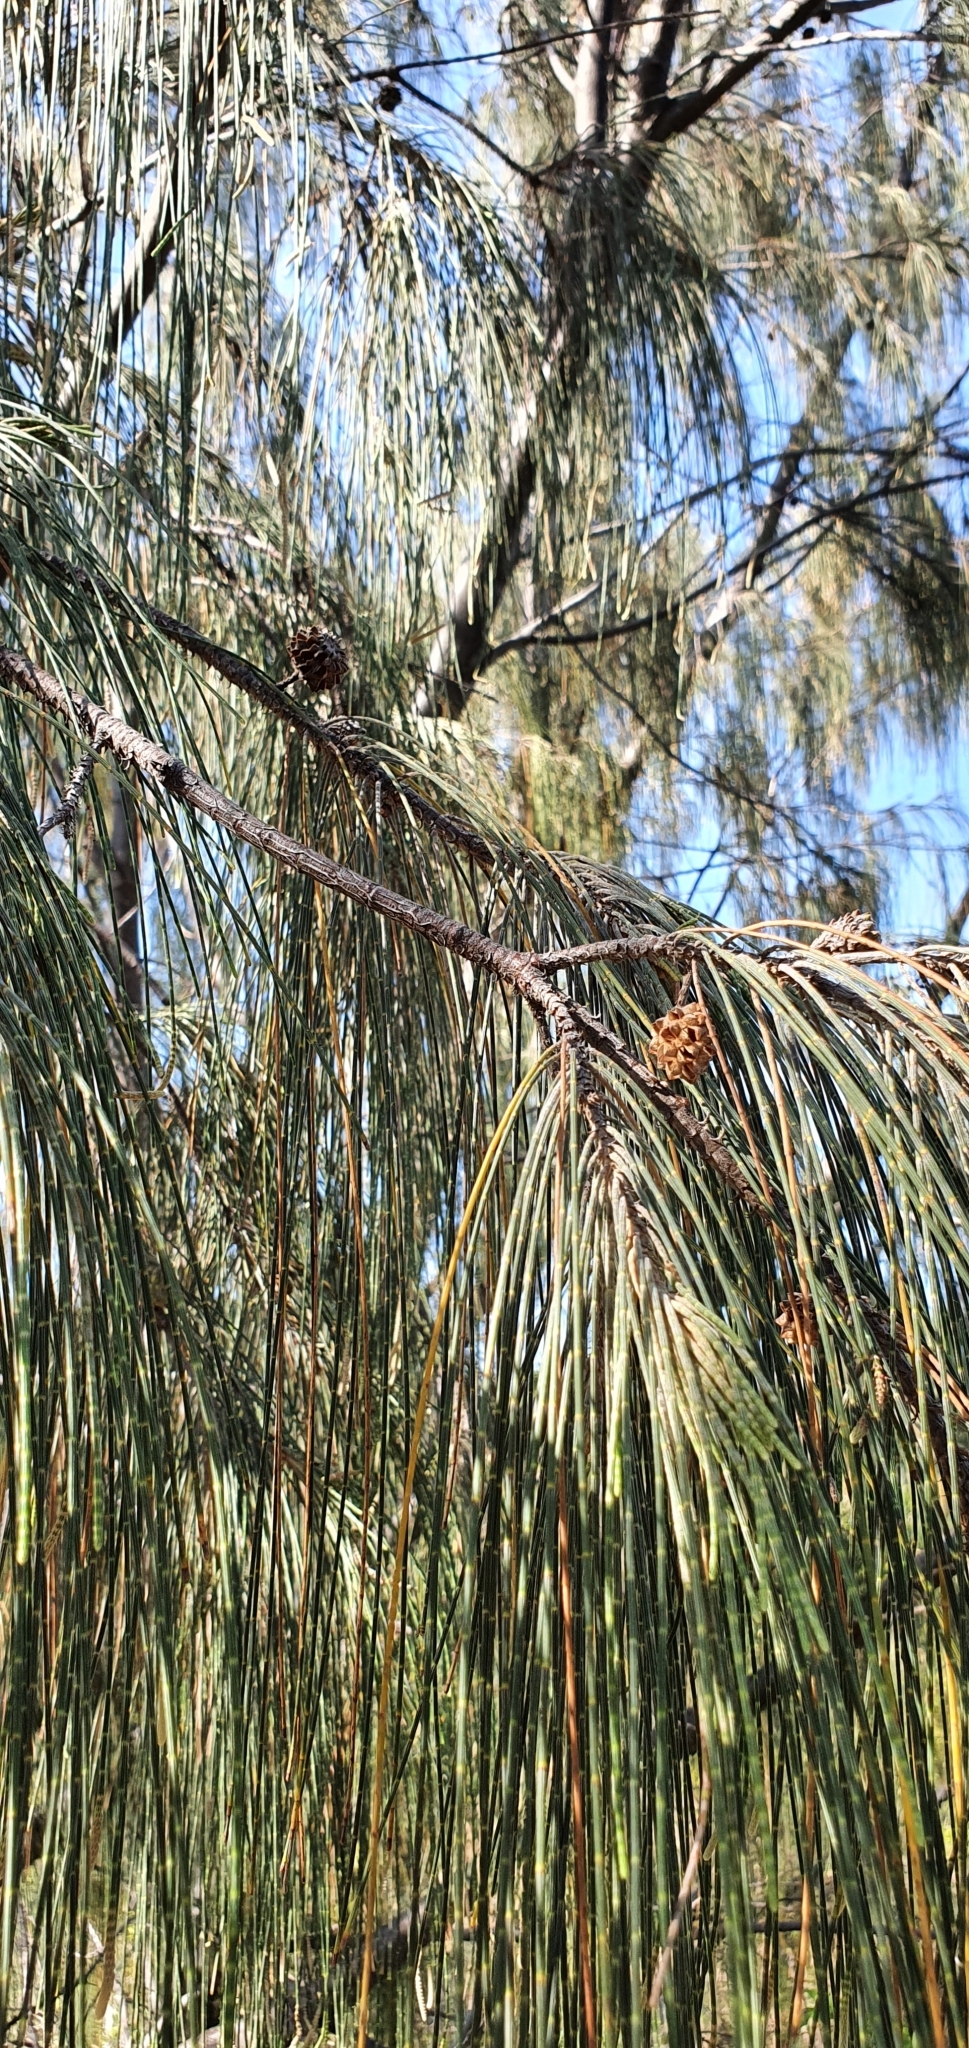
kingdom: Plantae
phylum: Tracheophyta
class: Magnoliopsida
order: Fagales
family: Casuarinaceae
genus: Casuarina
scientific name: Casuarina equisetifolia
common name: Beach sheoak
